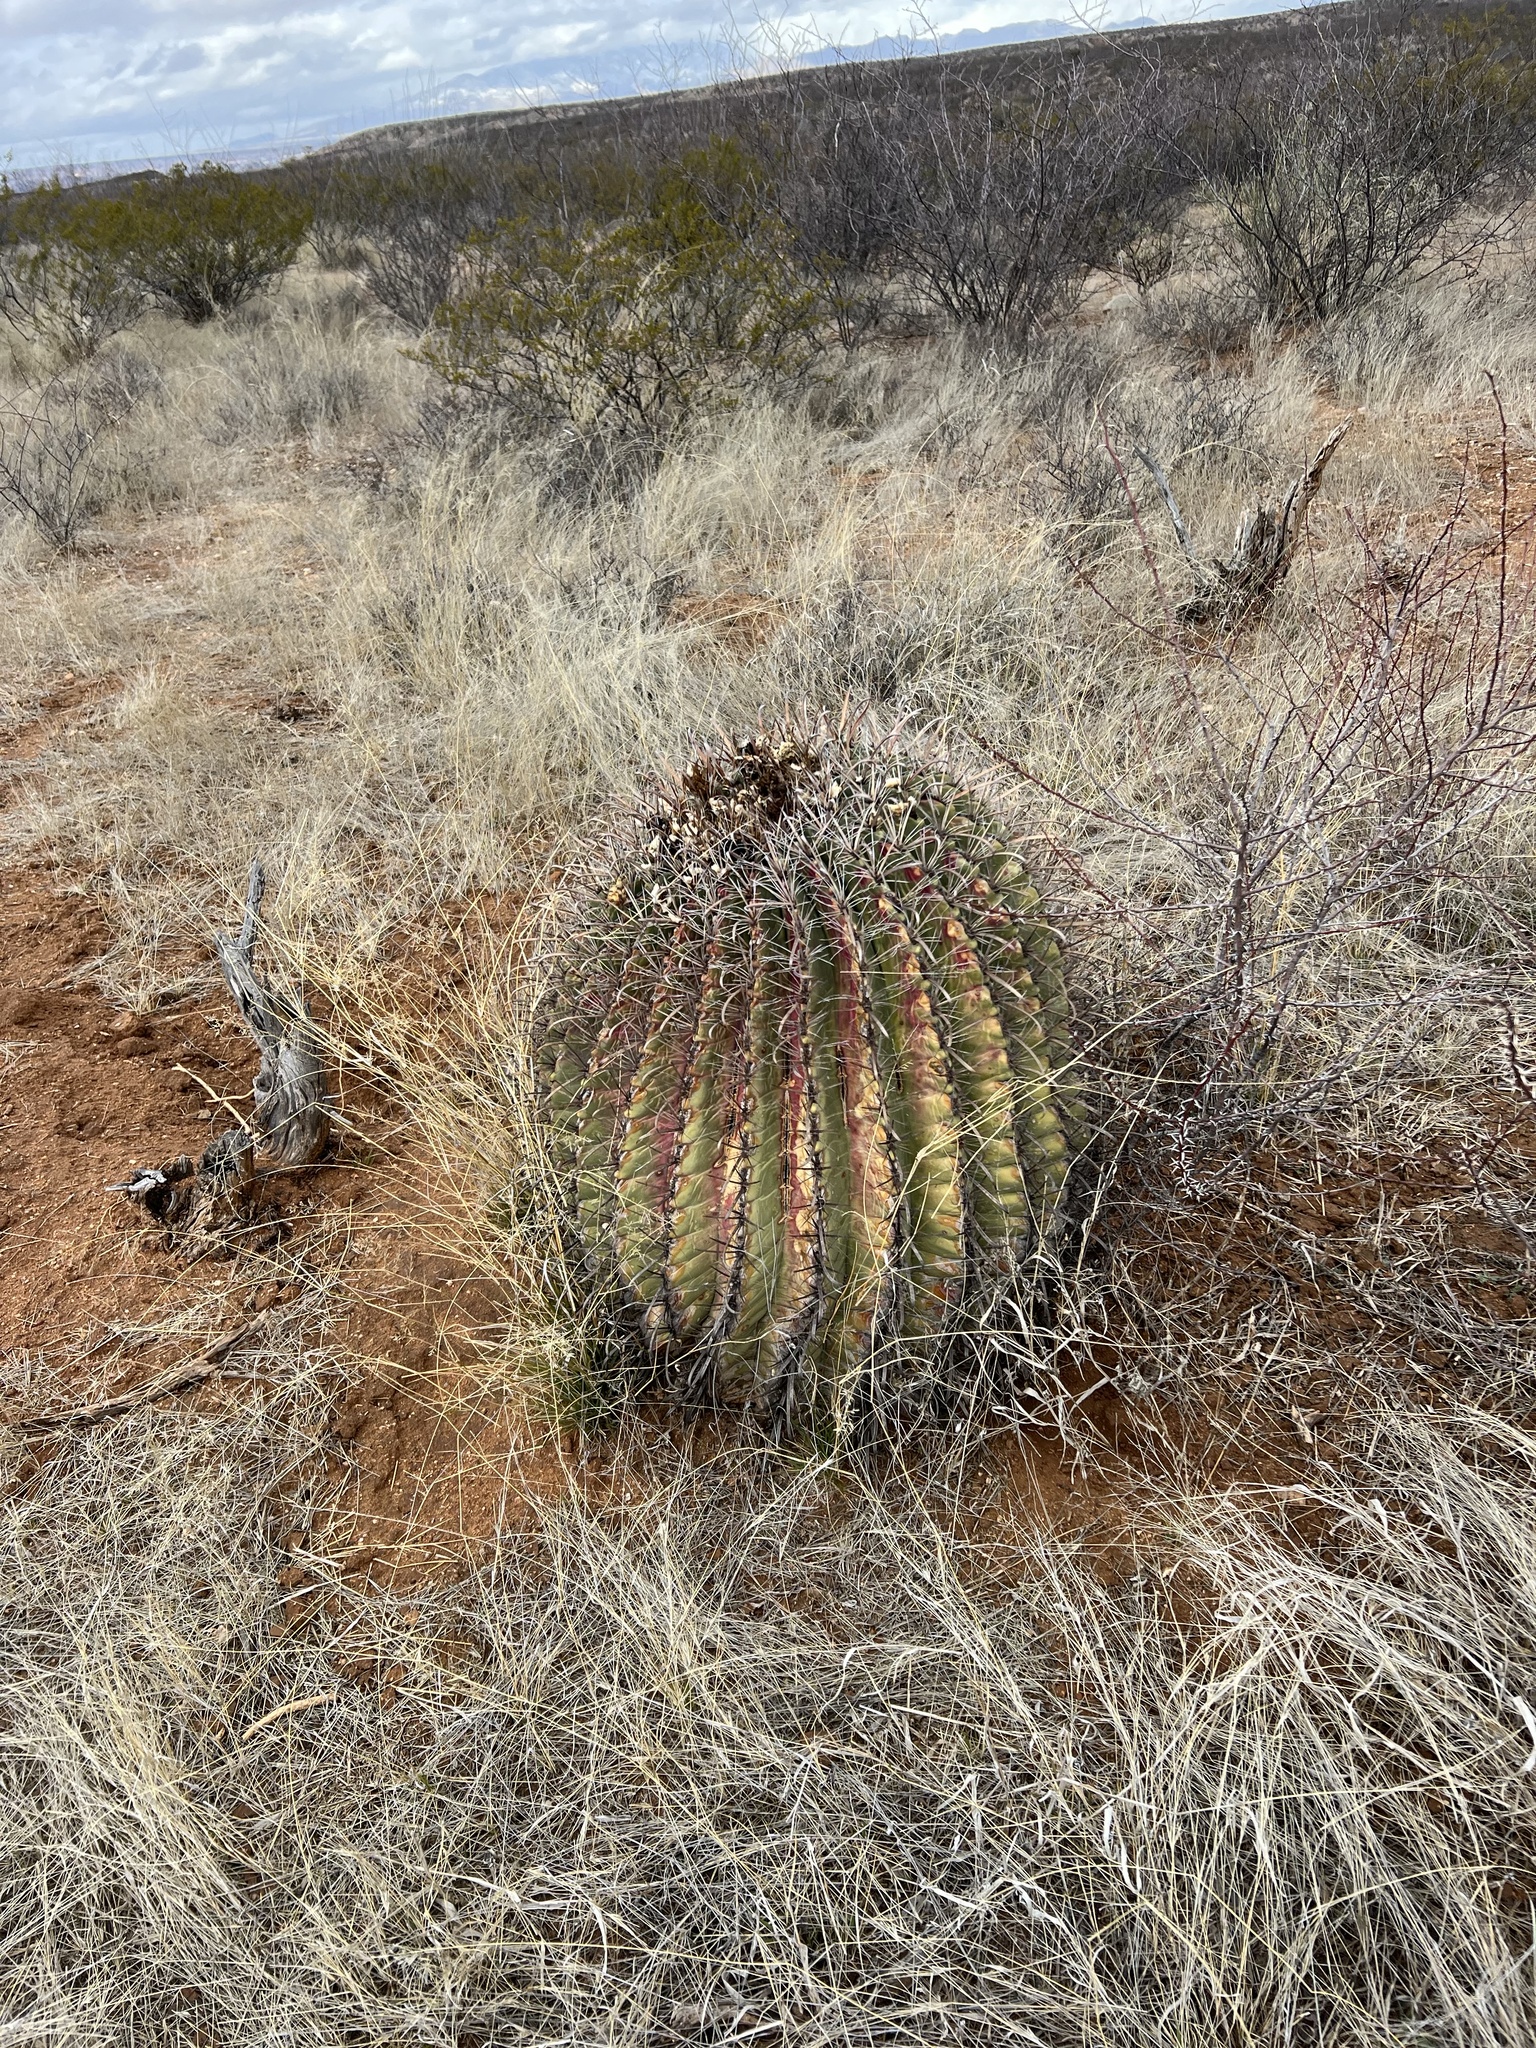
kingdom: Plantae
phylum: Tracheophyta
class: Magnoliopsida
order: Caryophyllales
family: Cactaceae
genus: Ferocactus
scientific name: Ferocactus wislizeni
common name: Candy barrel cactus
